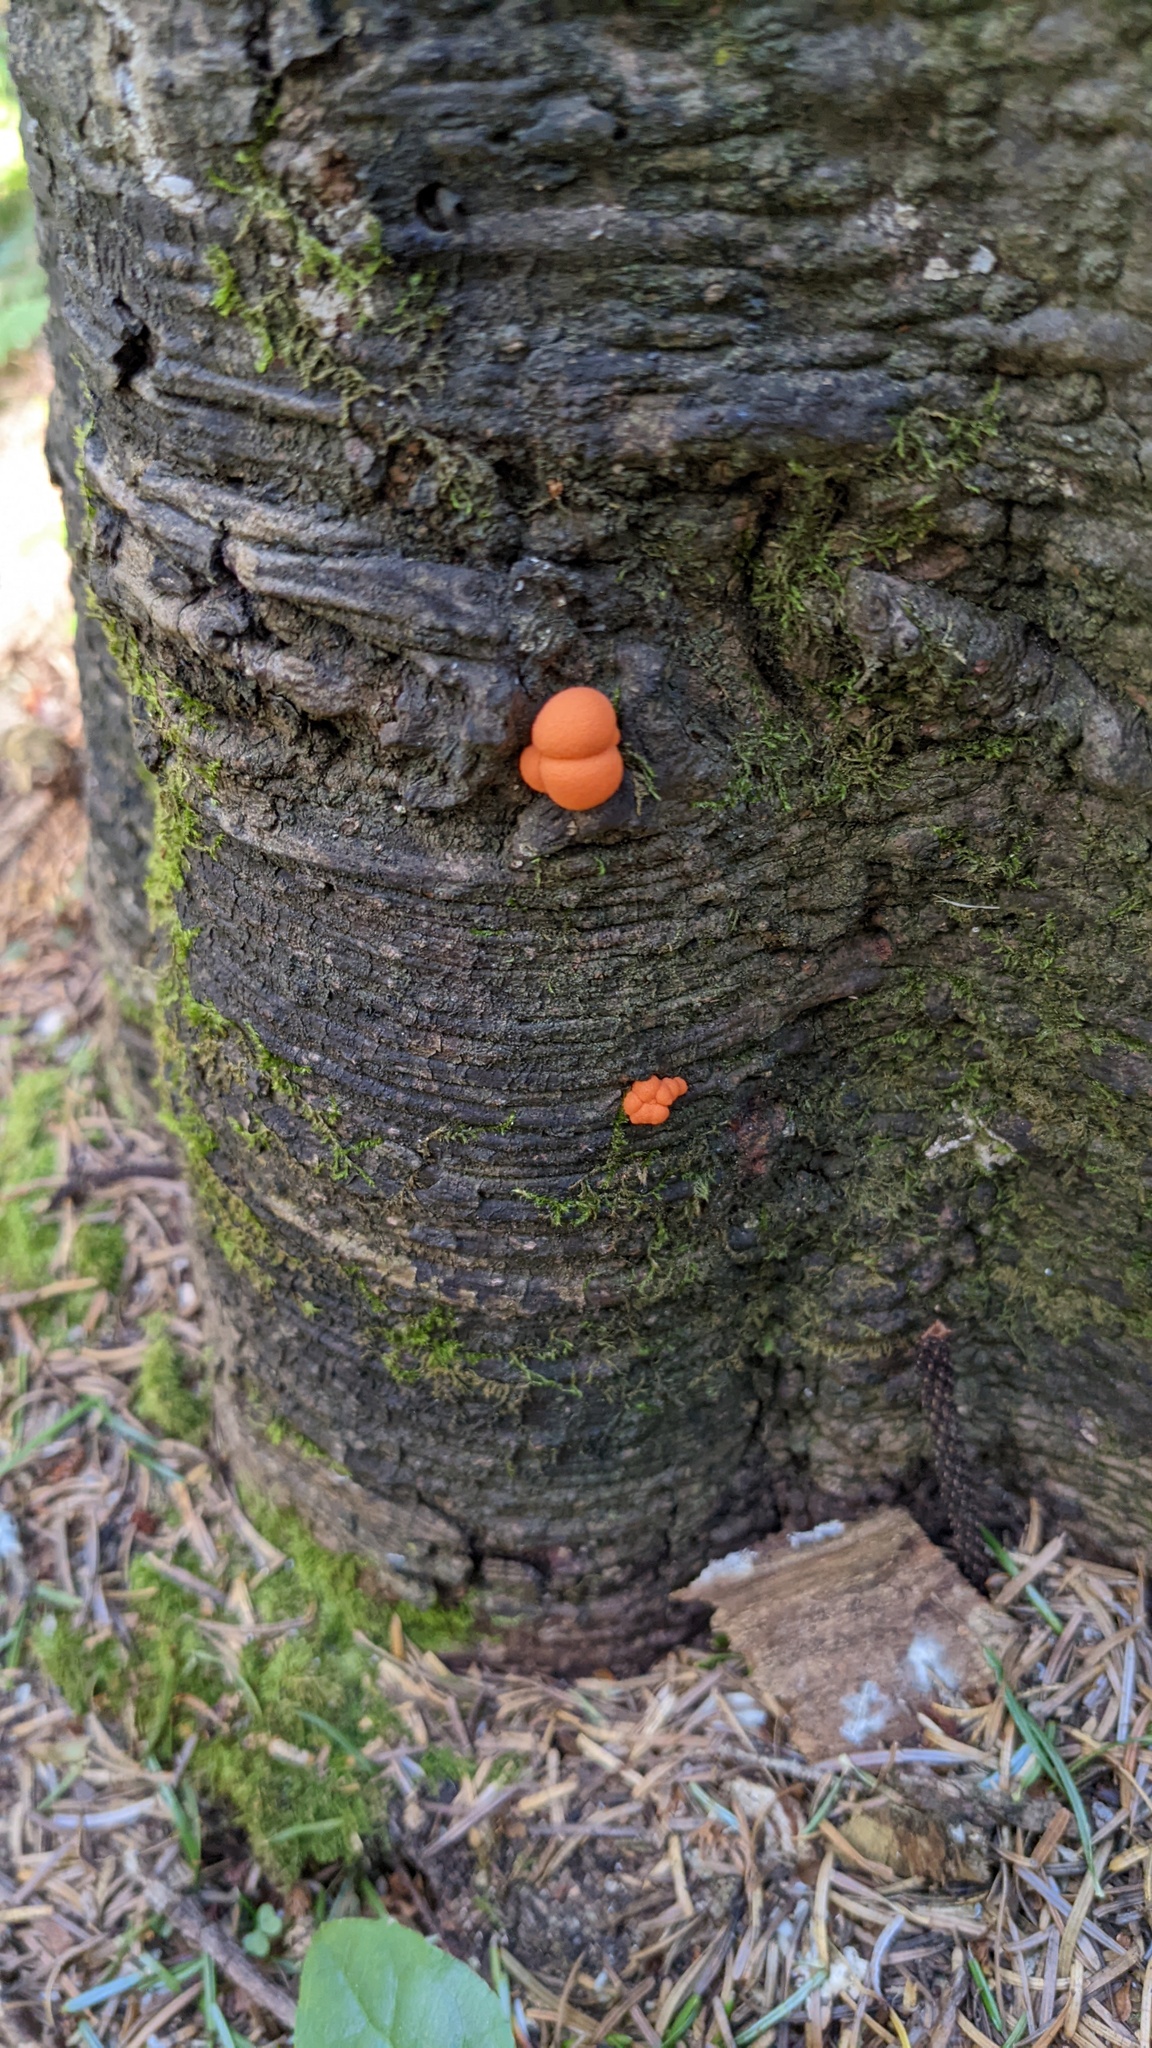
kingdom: Protozoa
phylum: Mycetozoa
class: Myxomycetes
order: Cribrariales
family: Tubiferaceae
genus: Lycogala
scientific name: Lycogala epidendrum
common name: Wolf's milk
